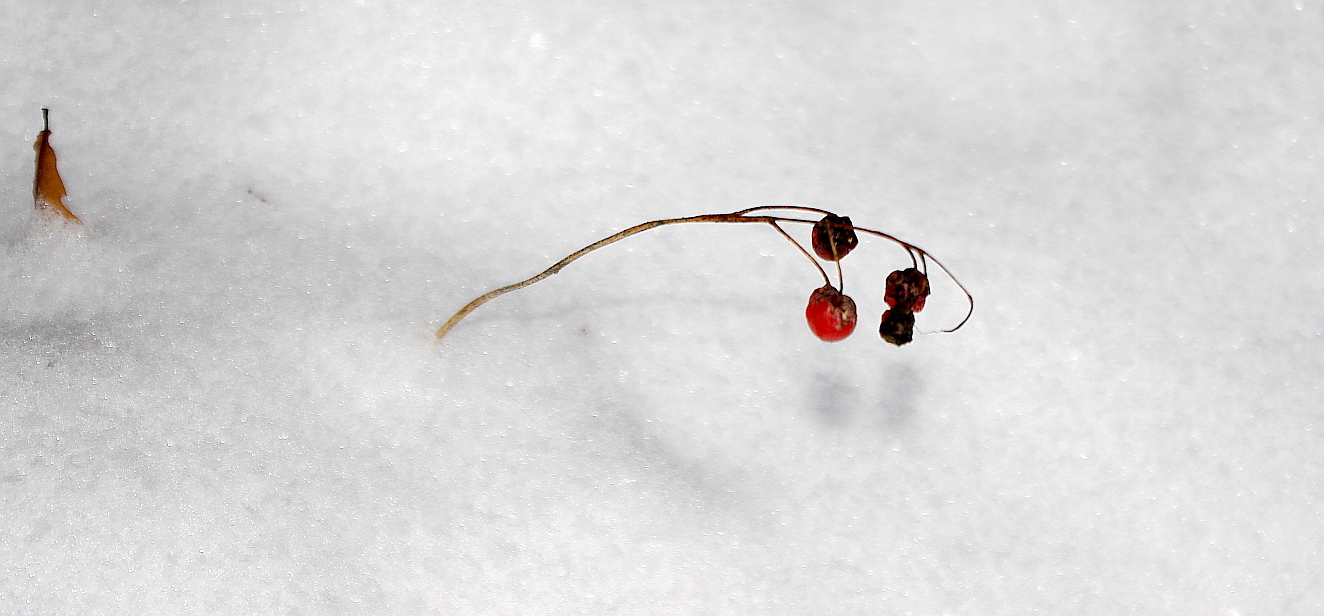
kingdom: Plantae
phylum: Tracheophyta
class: Liliopsida
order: Asparagales
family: Asparagaceae
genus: Convallaria
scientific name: Convallaria majalis
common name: Lily-of-the-valley
